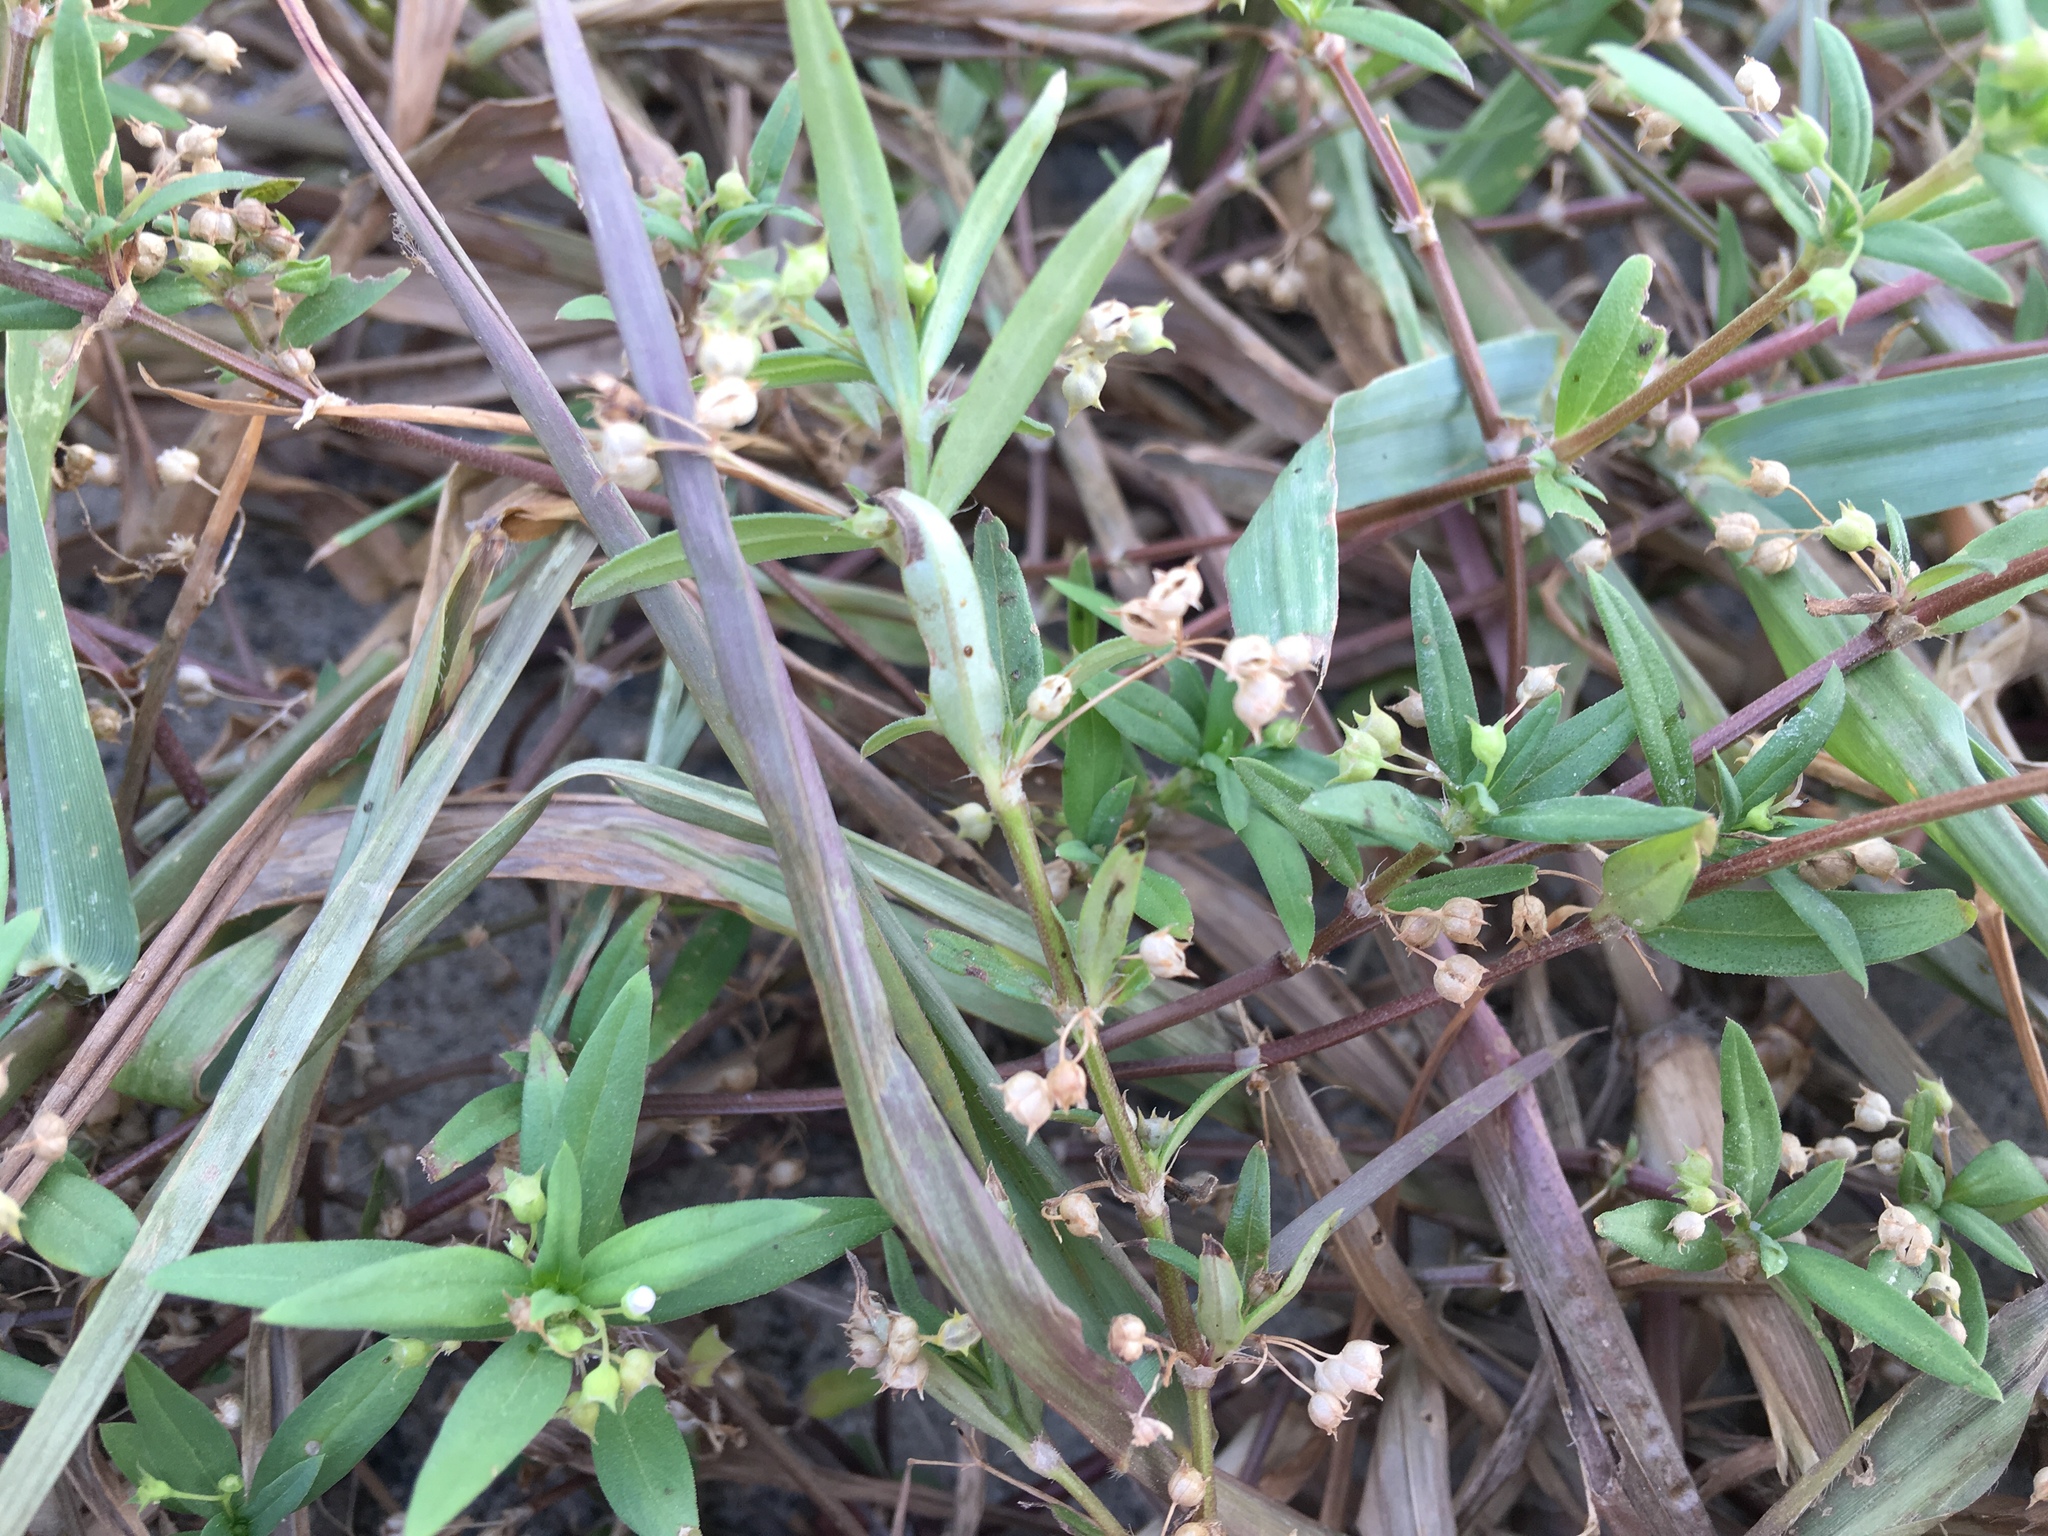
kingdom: Plantae
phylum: Tracheophyta
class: Magnoliopsida
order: Gentianales
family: Rubiaceae
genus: Oldenlandia
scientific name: Oldenlandia corymbosa
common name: Flat-top mille graines
